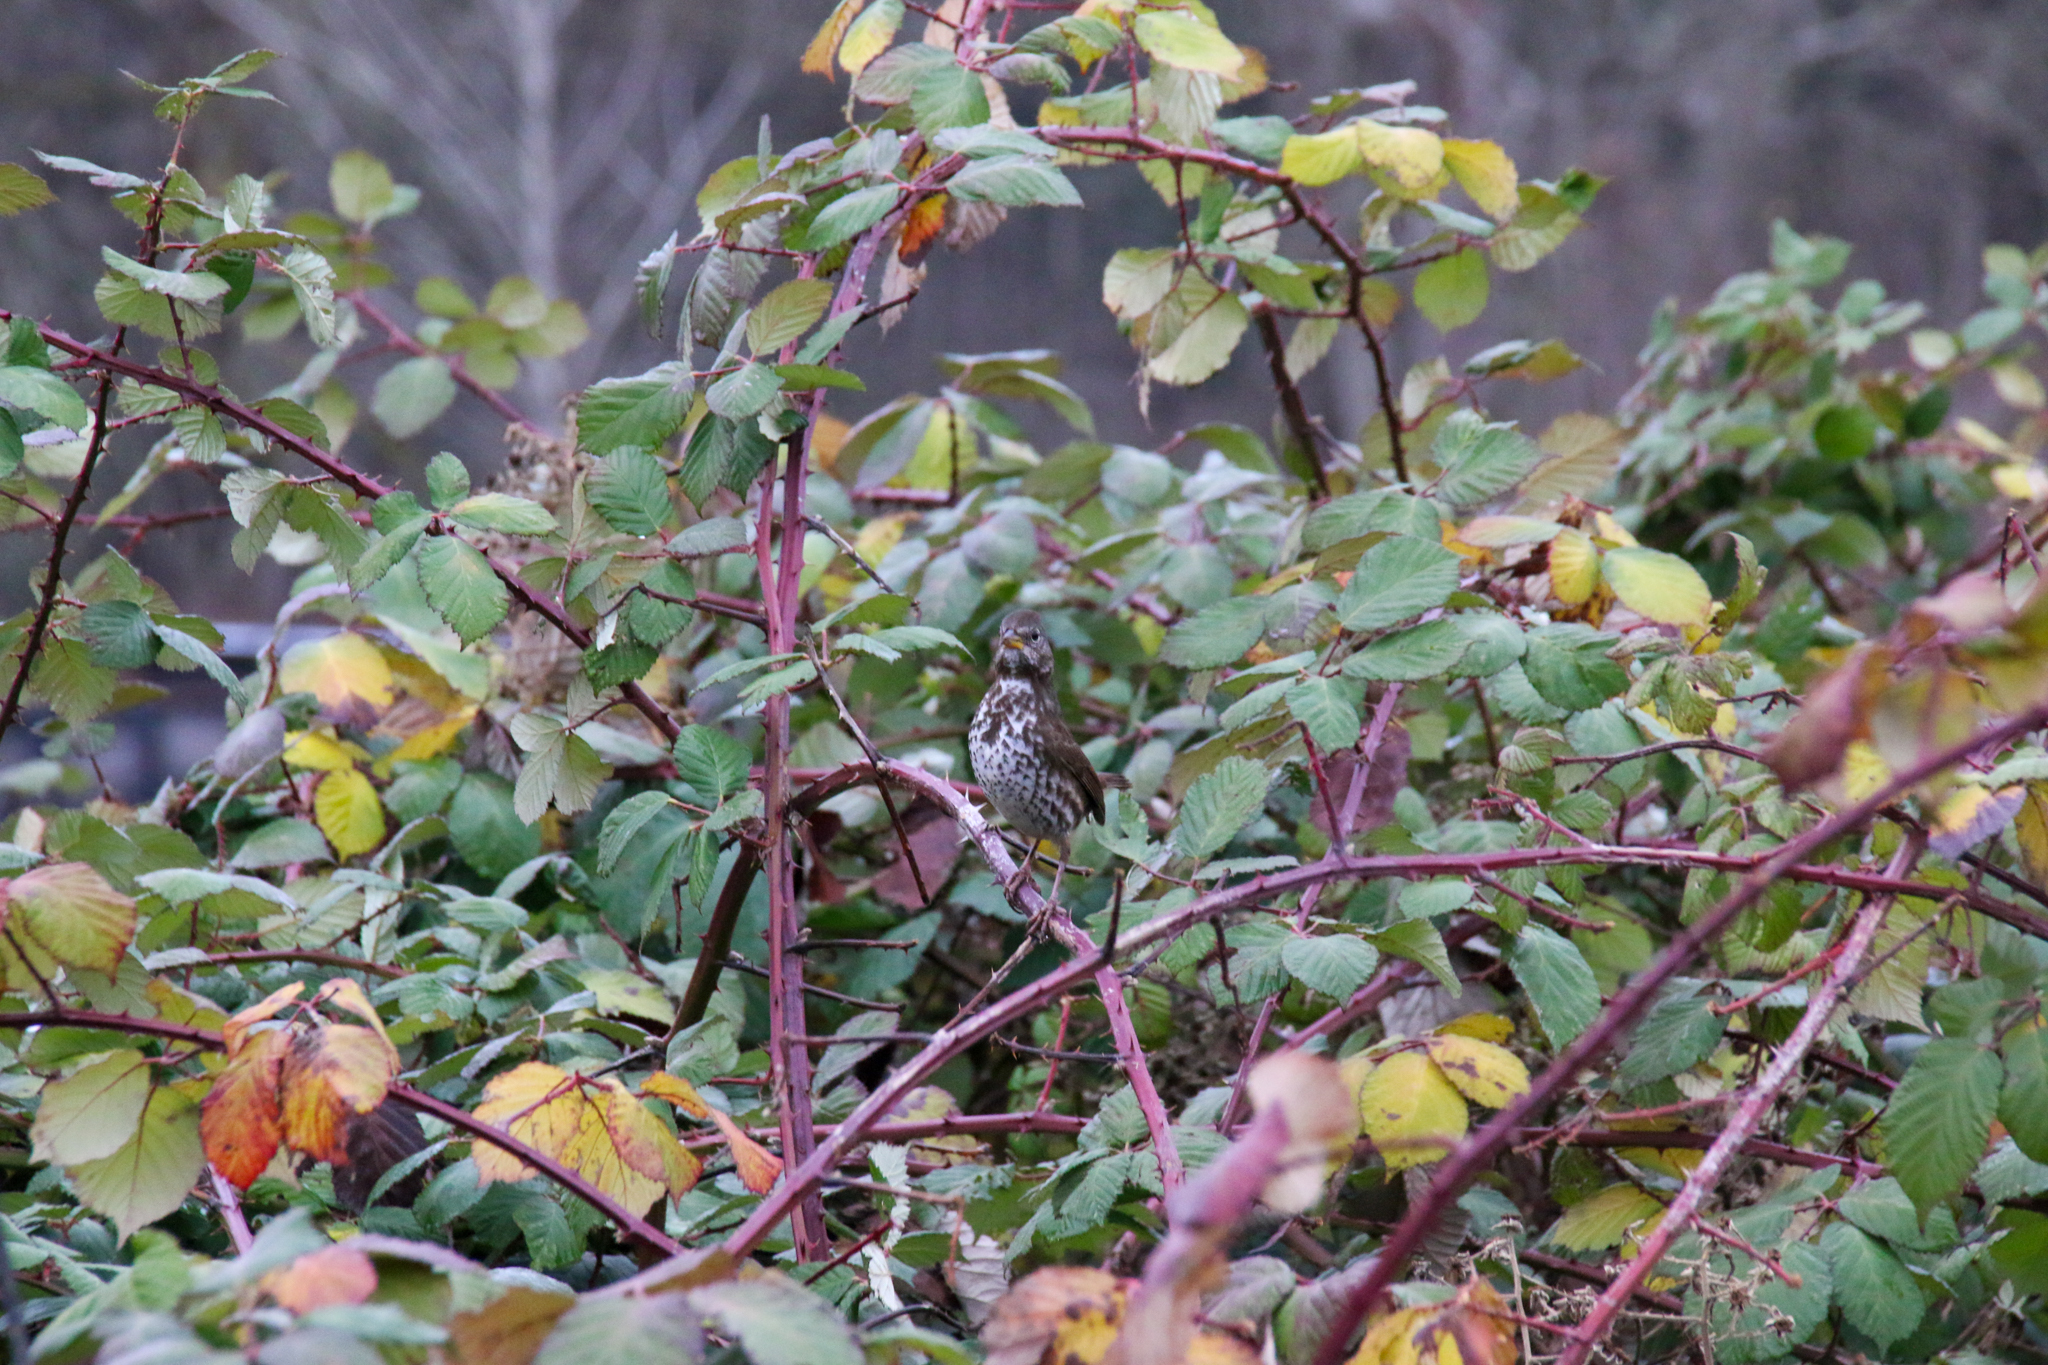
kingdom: Animalia
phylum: Chordata
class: Aves
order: Passeriformes
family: Passerellidae
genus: Passerella
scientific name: Passerella iliaca
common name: Fox sparrow
